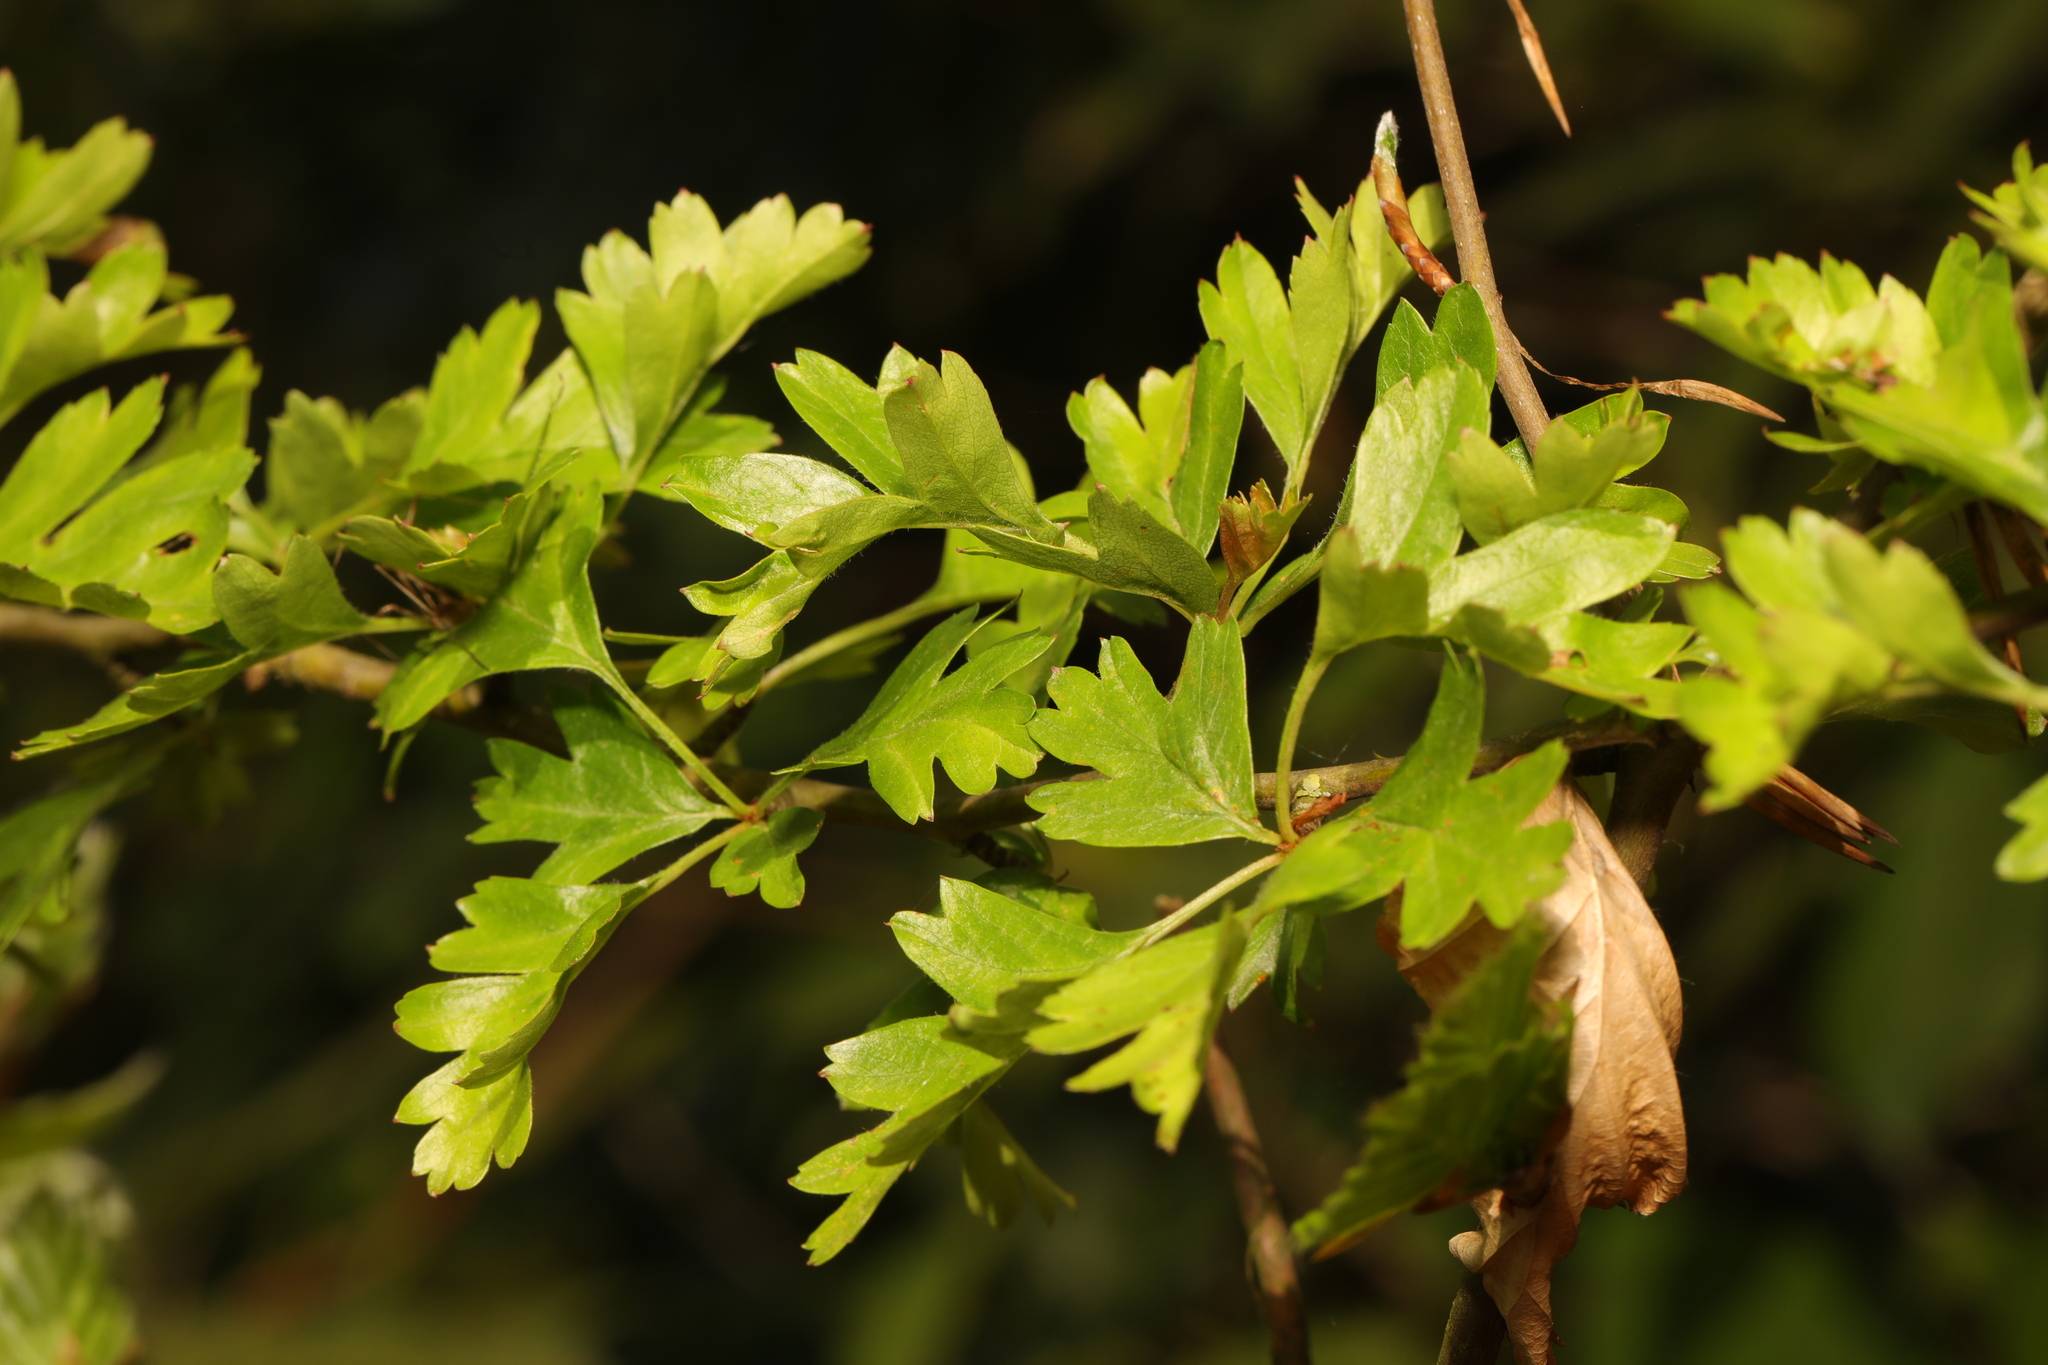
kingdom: Plantae
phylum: Tracheophyta
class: Magnoliopsida
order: Rosales
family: Rosaceae
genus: Crataegus
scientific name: Crataegus monogyna
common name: Hawthorn
